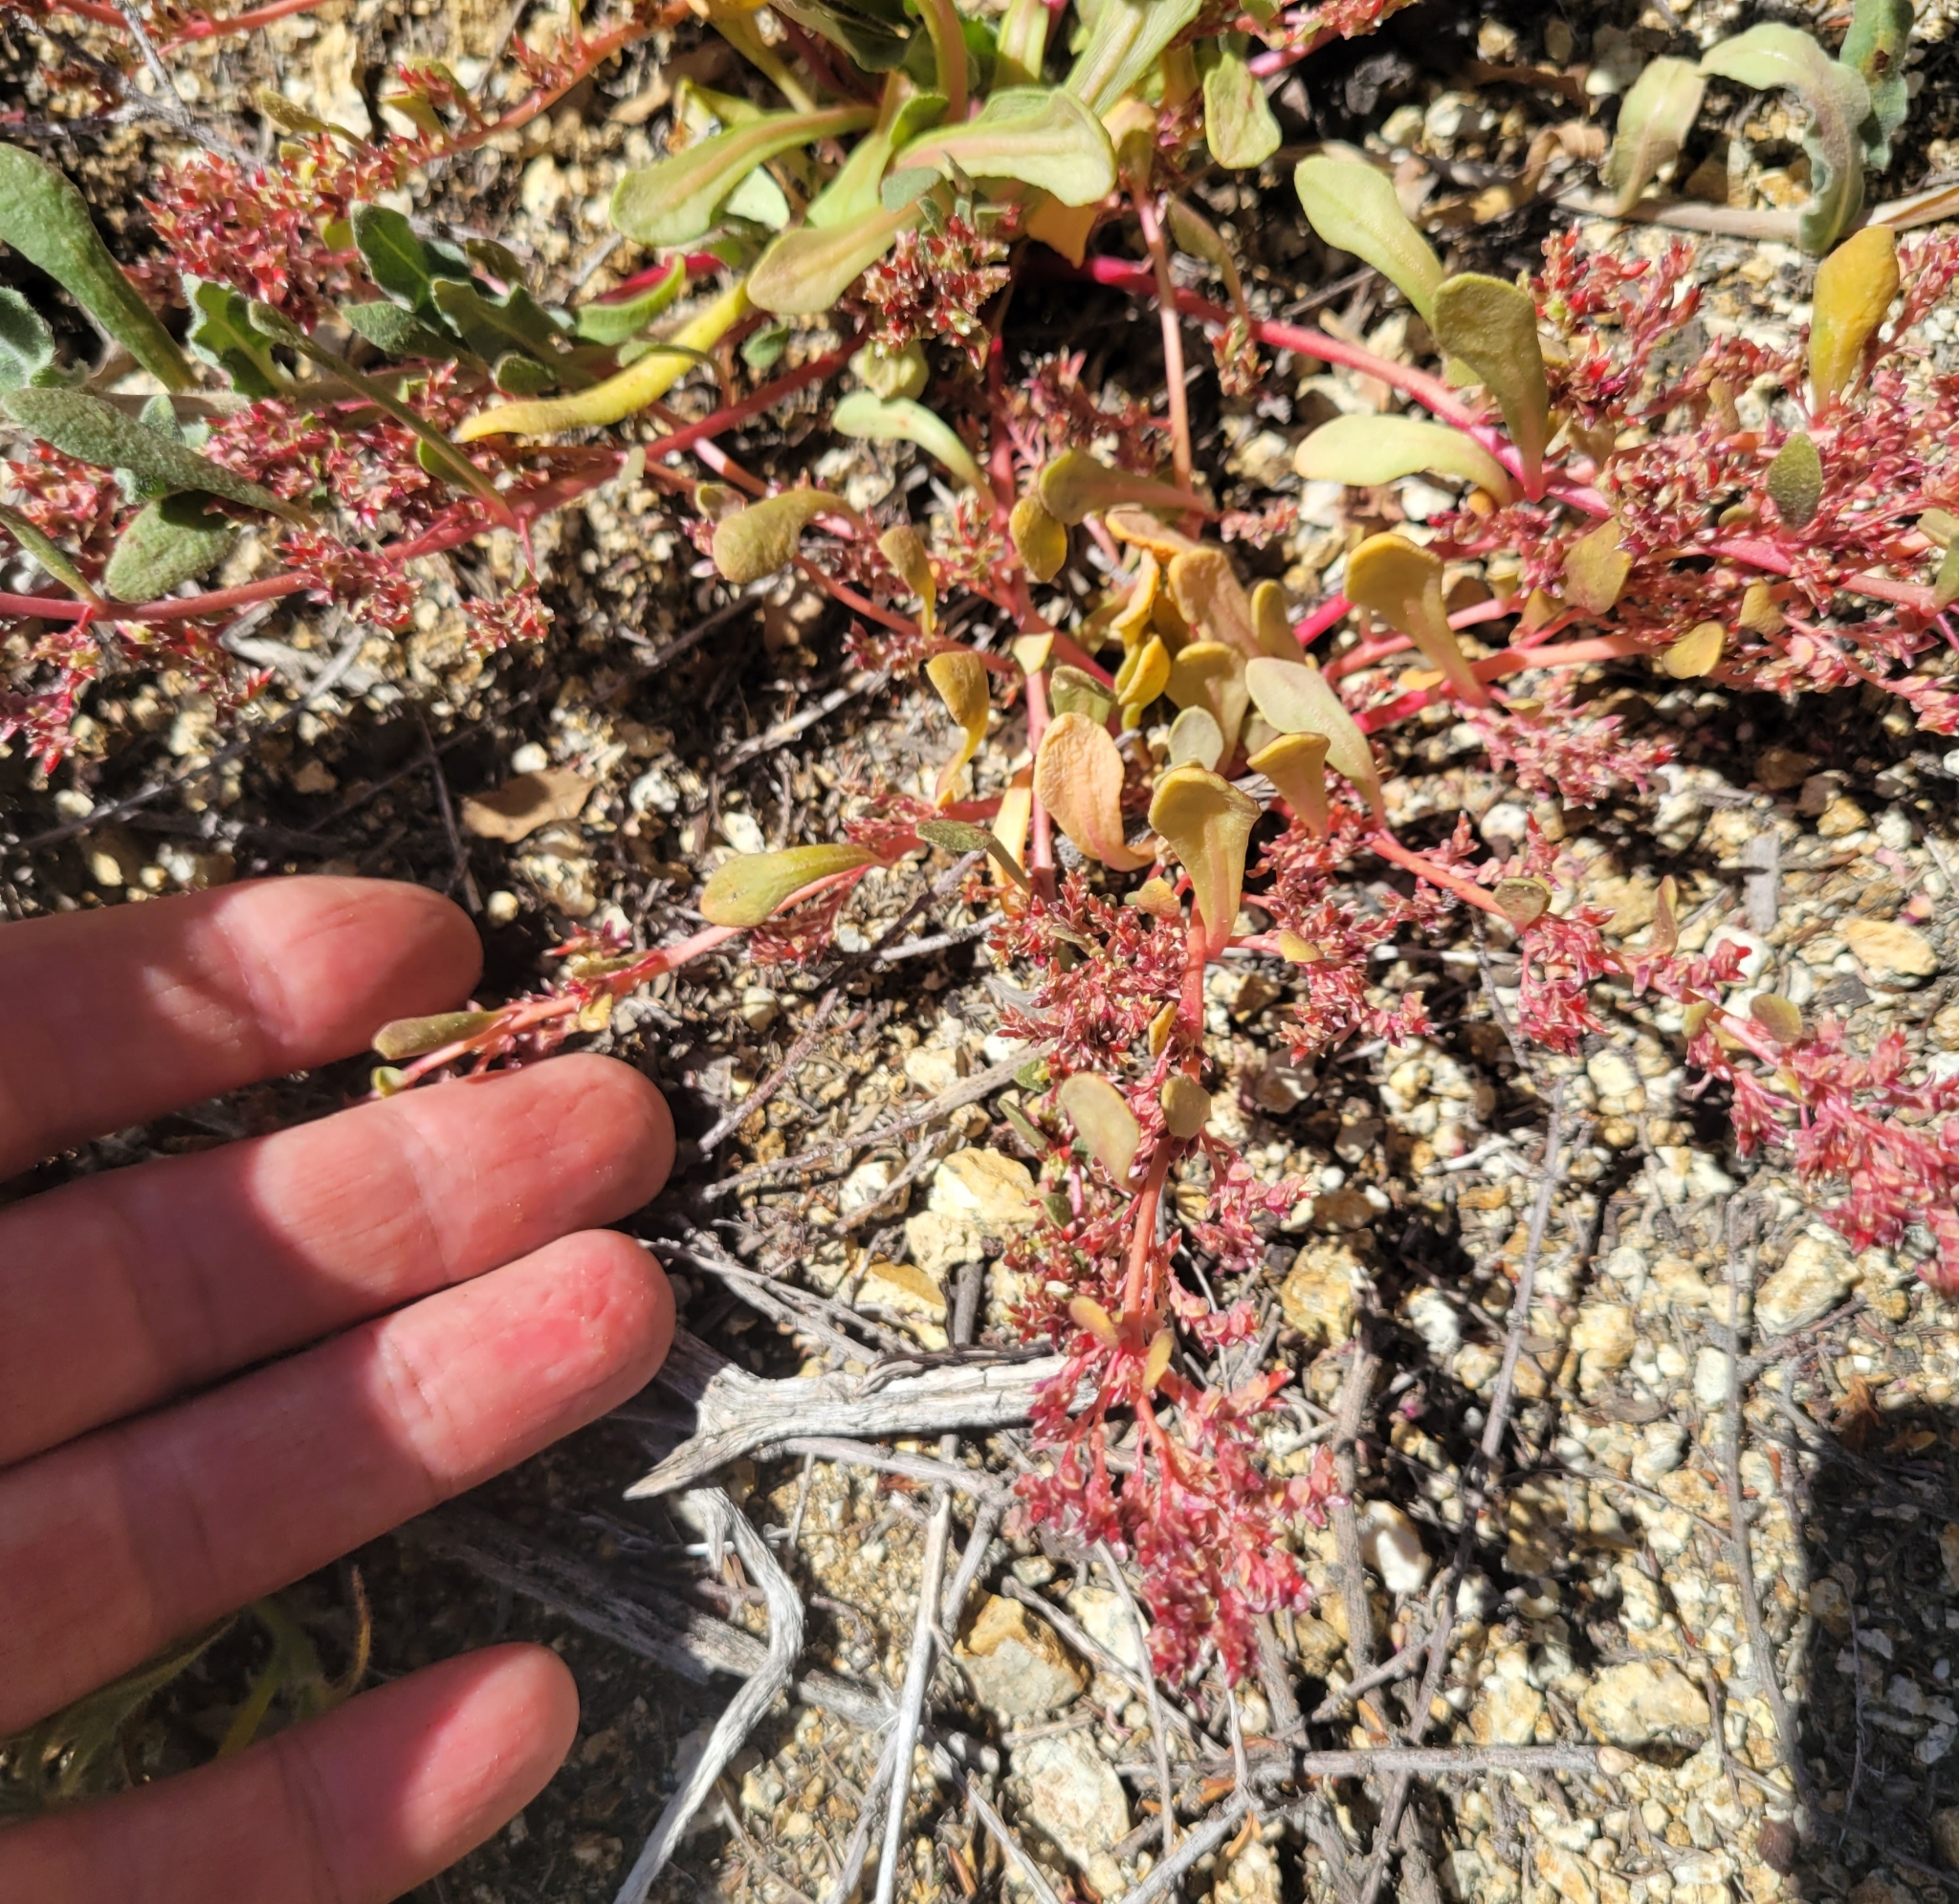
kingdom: Plantae
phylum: Tracheophyta
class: Magnoliopsida
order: Caryophyllales
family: Montiaceae
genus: Calyptridium
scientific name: Calyptridium monandrum
